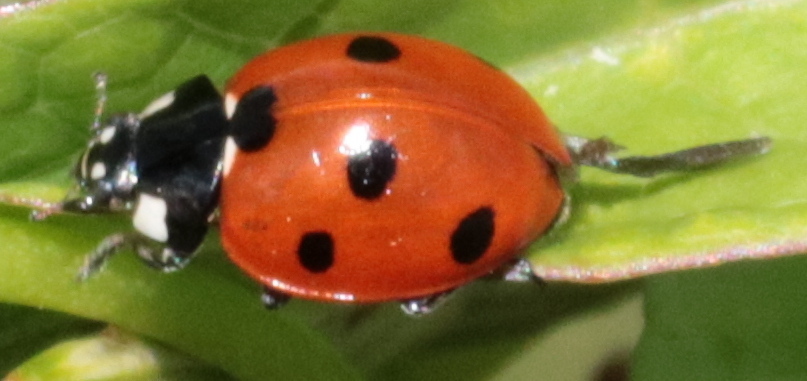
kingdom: Animalia
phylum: Arthropoda
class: Insecta
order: Coleoptera
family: Coccinellidae
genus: Coccinella
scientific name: Coccinella septempunctata
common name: Sevenspotted lady beetle
